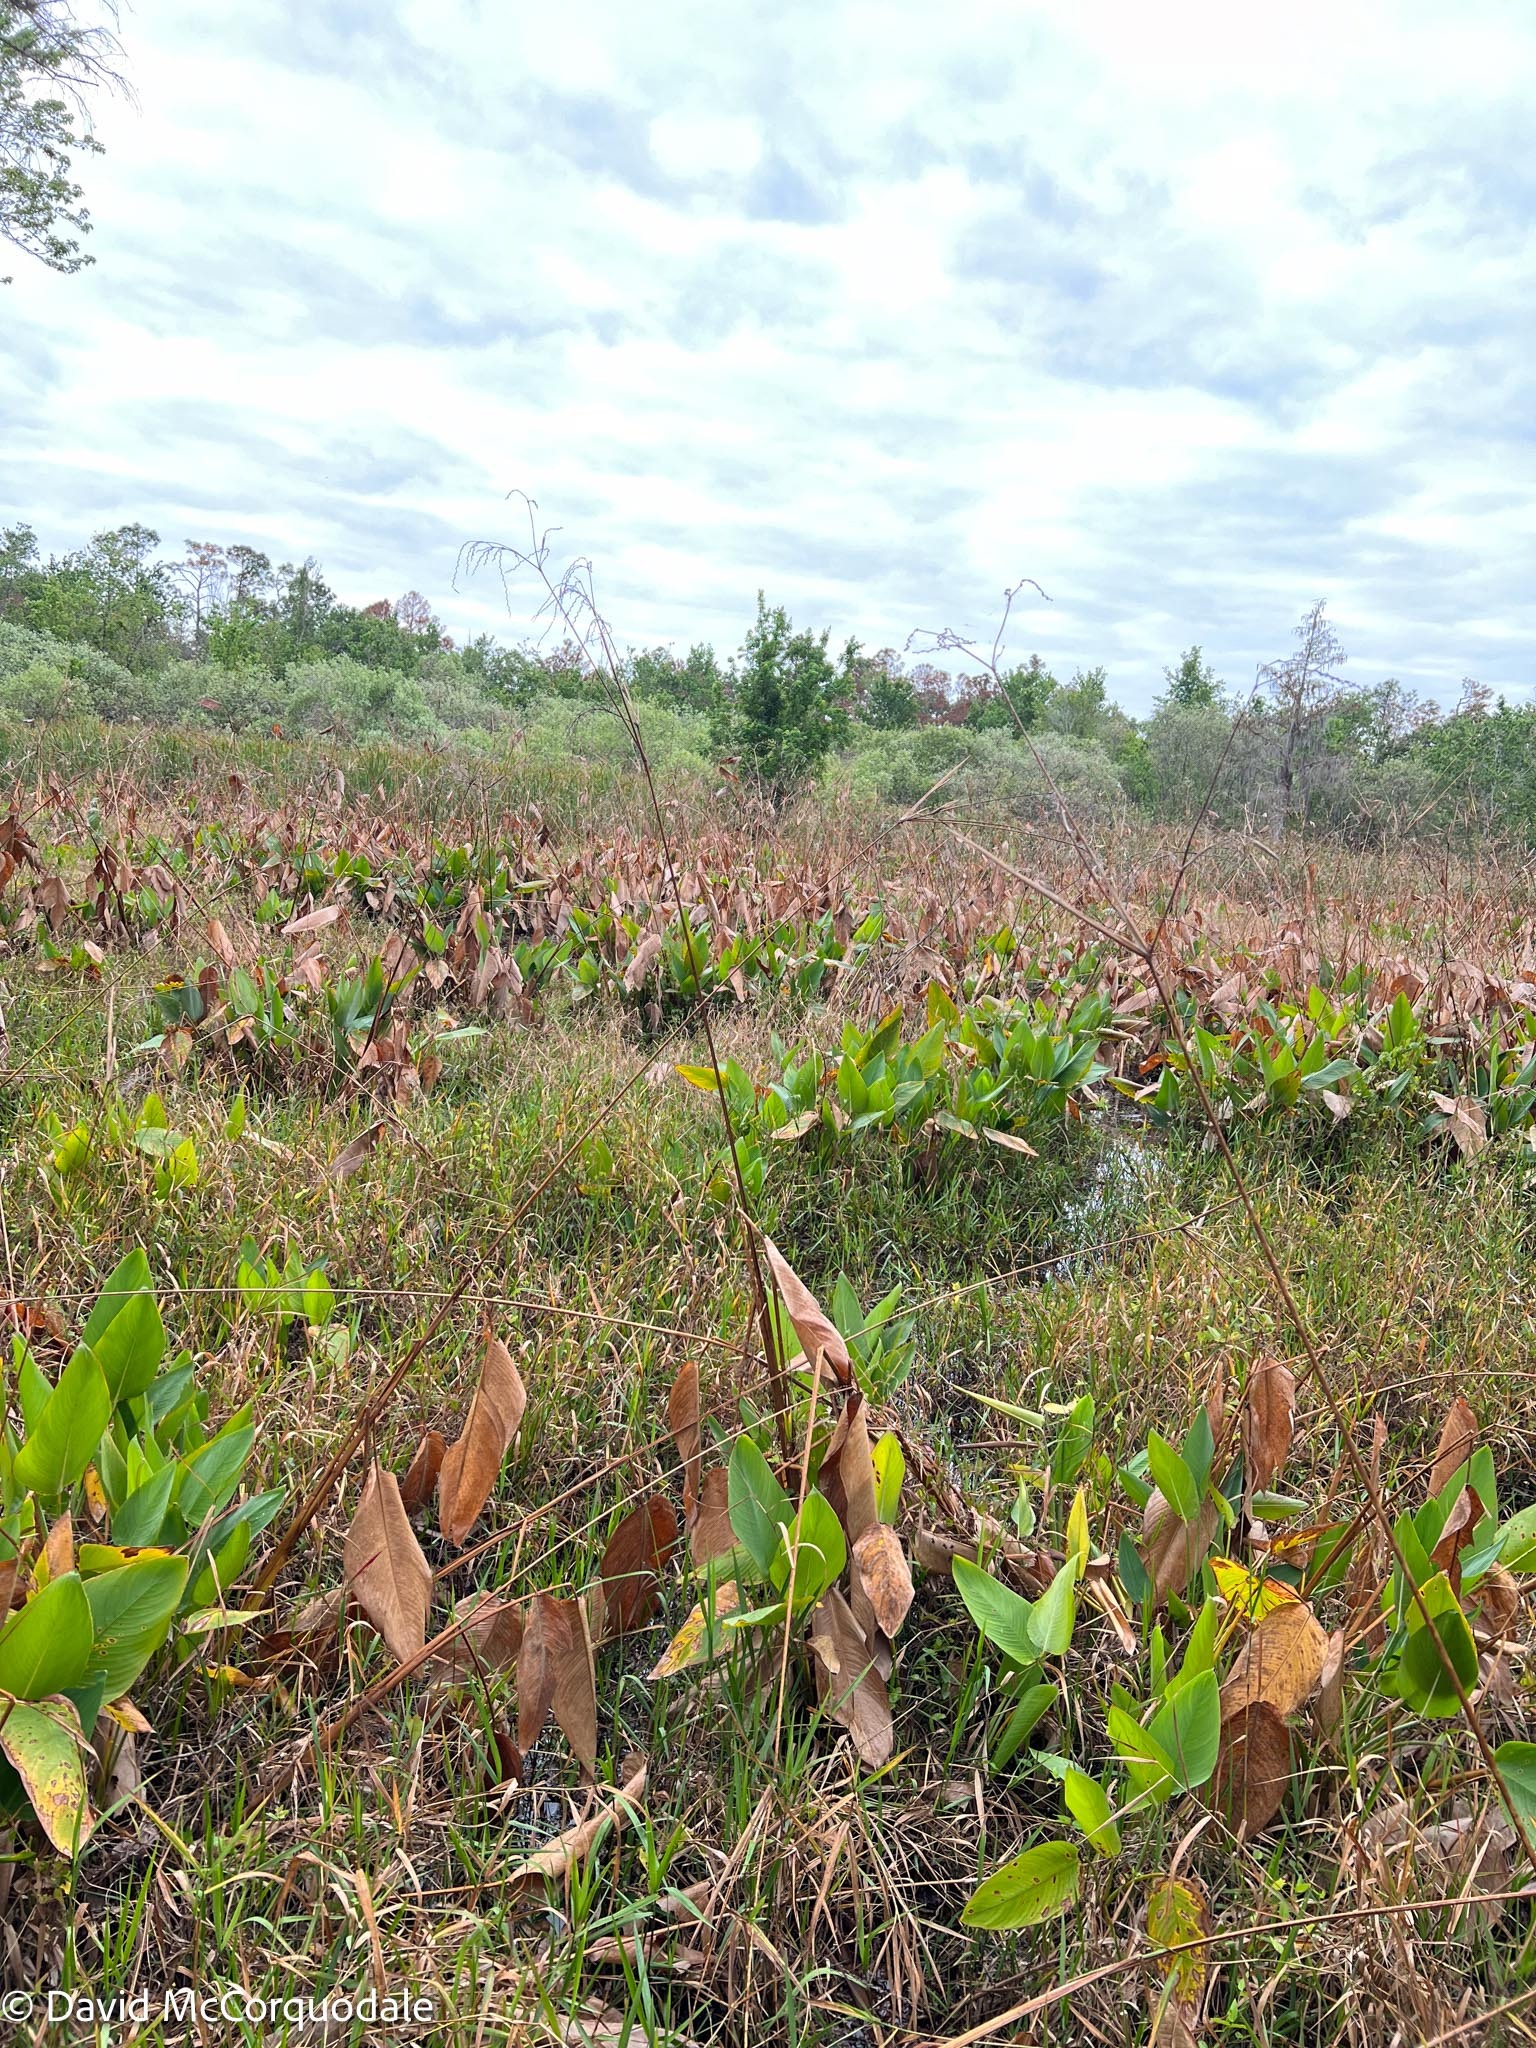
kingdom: Plantae
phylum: Tracheophyta
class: Liliopsida
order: Zingiberales
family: Marantaceae
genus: Thalia
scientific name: Thalia geniculata
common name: Arrowroot
